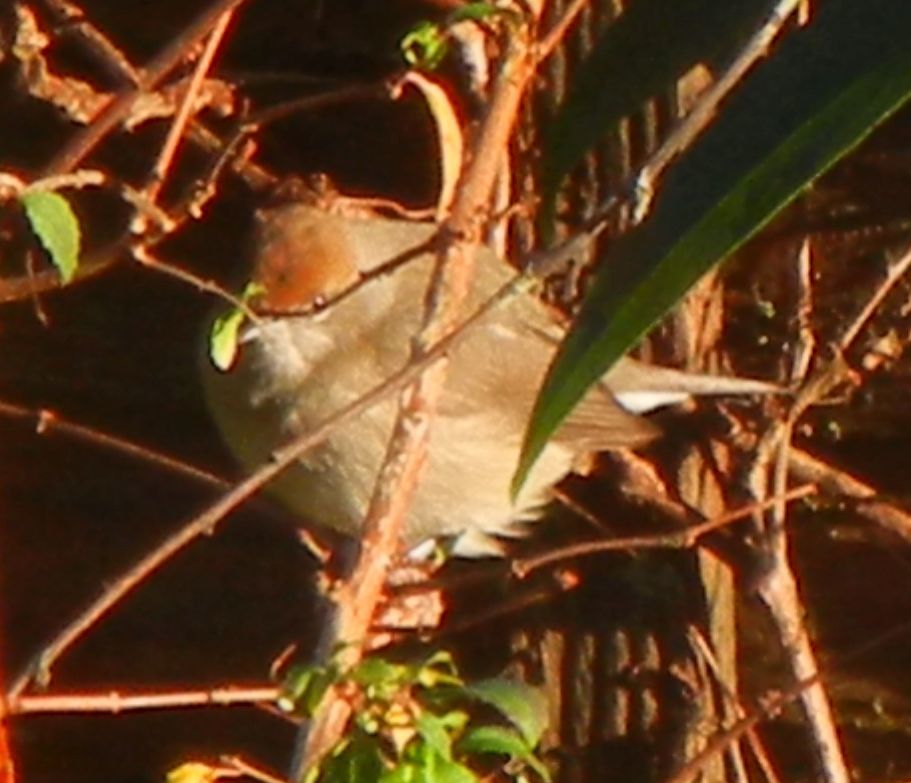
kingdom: Animalia
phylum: Chordata
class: Aves
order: Passeriformes
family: Sylviidae
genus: Sylvia
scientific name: Sylvia atricapilla
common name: Eurasian blackcap
